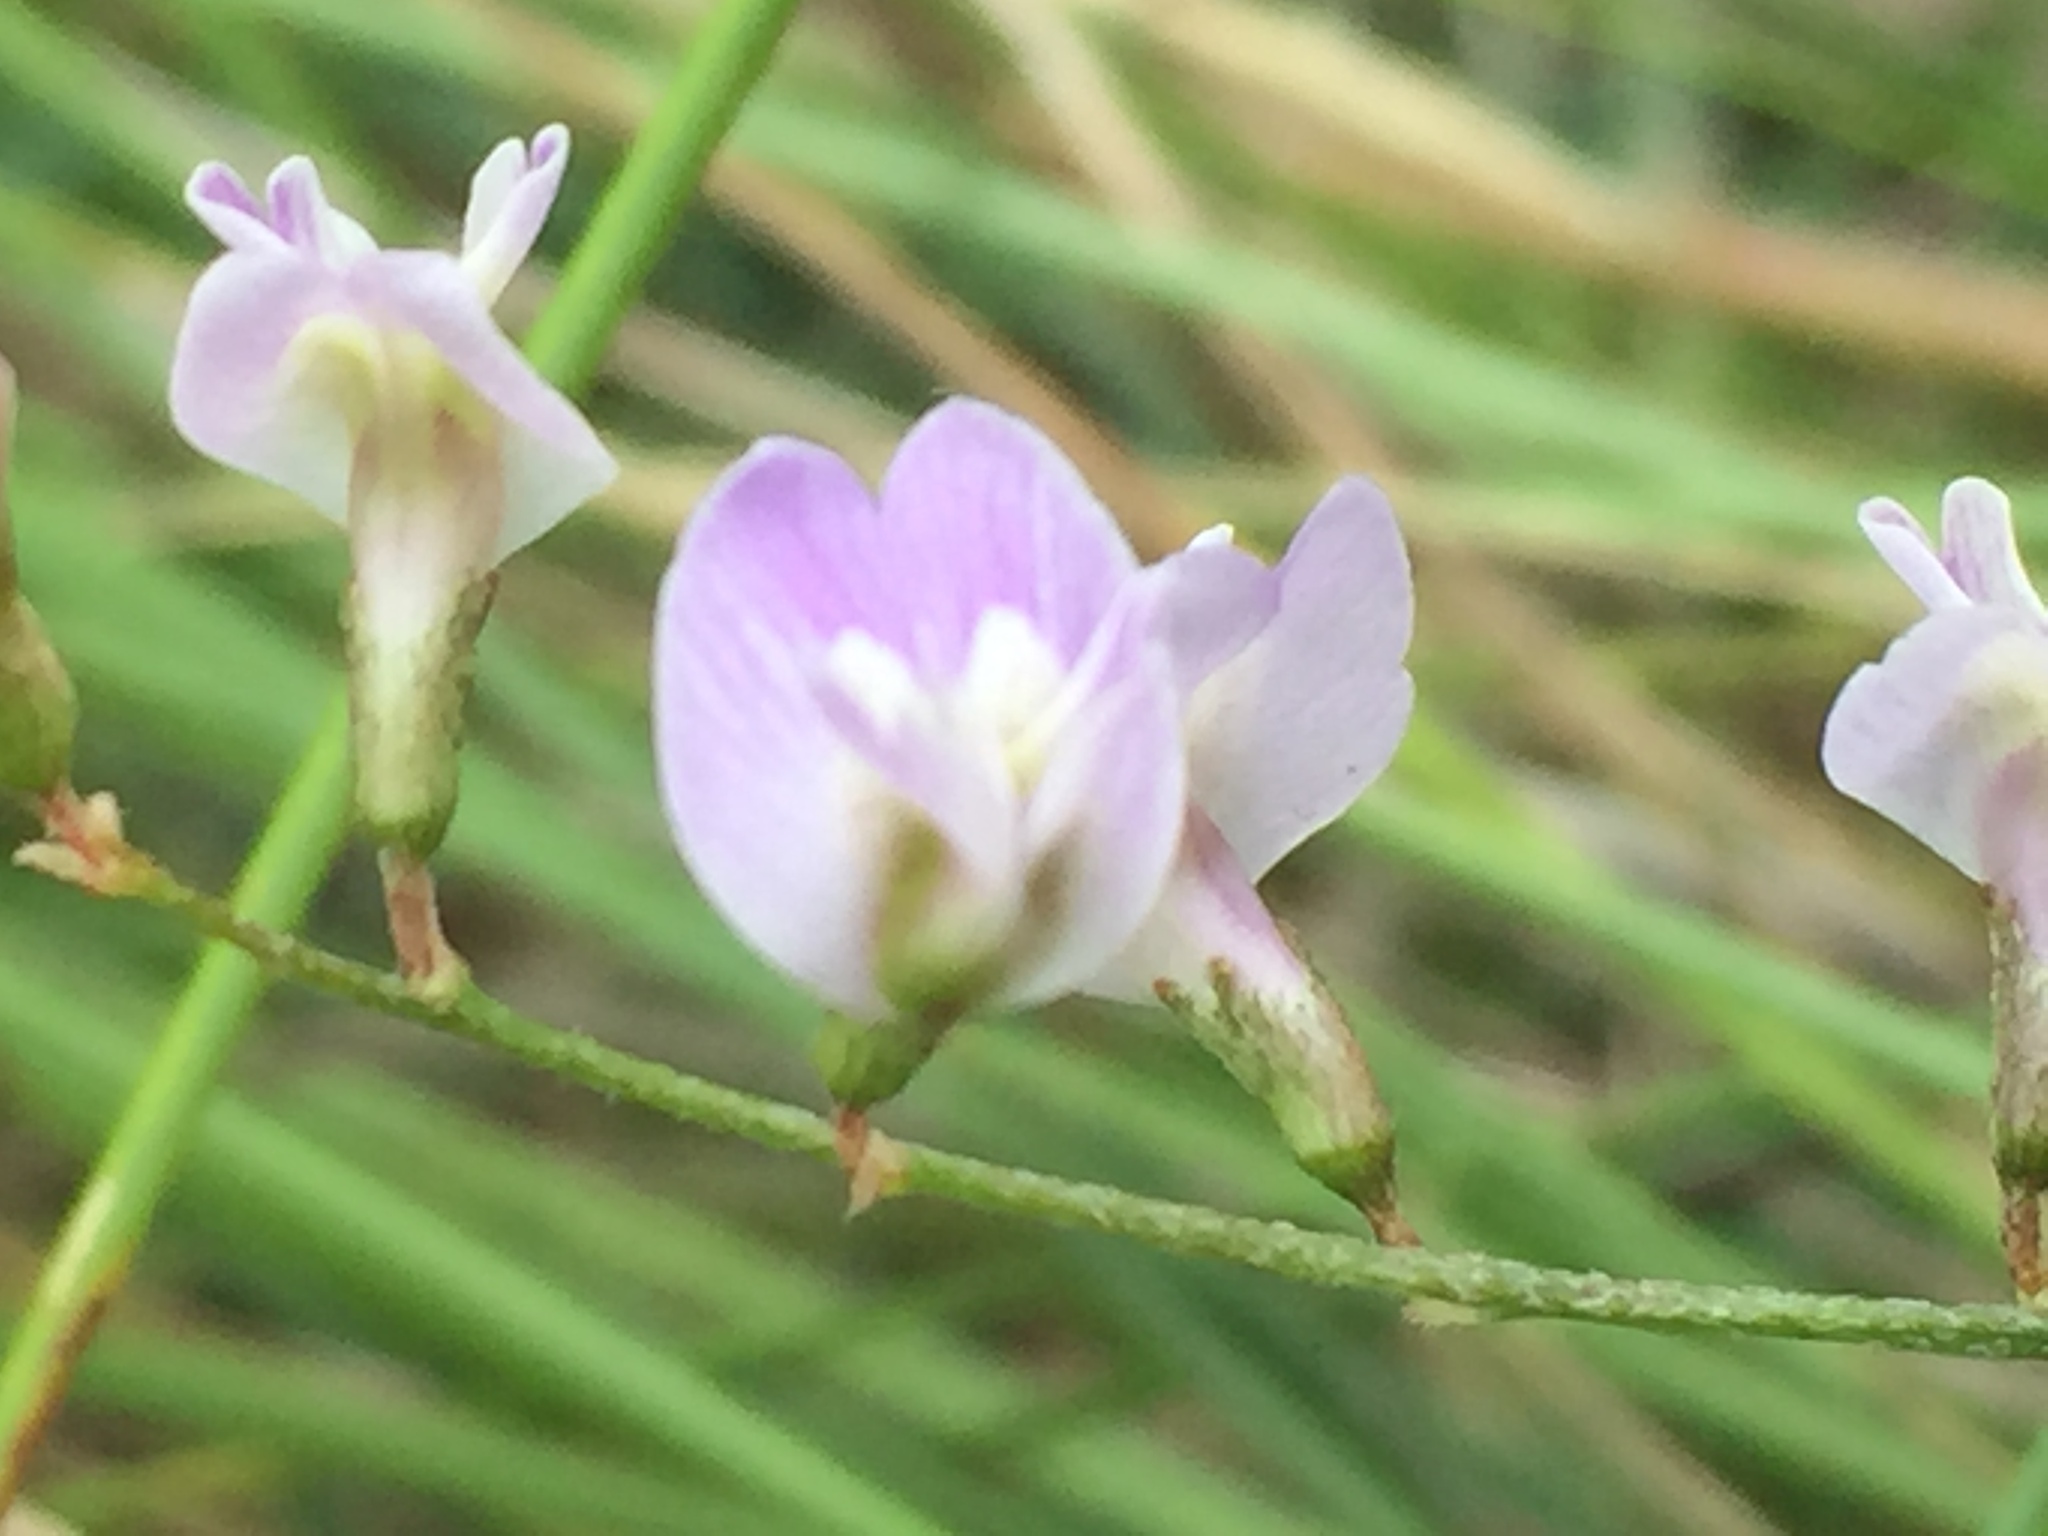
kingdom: Plantae
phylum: Tracheophyta
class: Magnoliopsida
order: Fabales
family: Fabaceae
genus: Astragalus
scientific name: Astragalus austriacus
